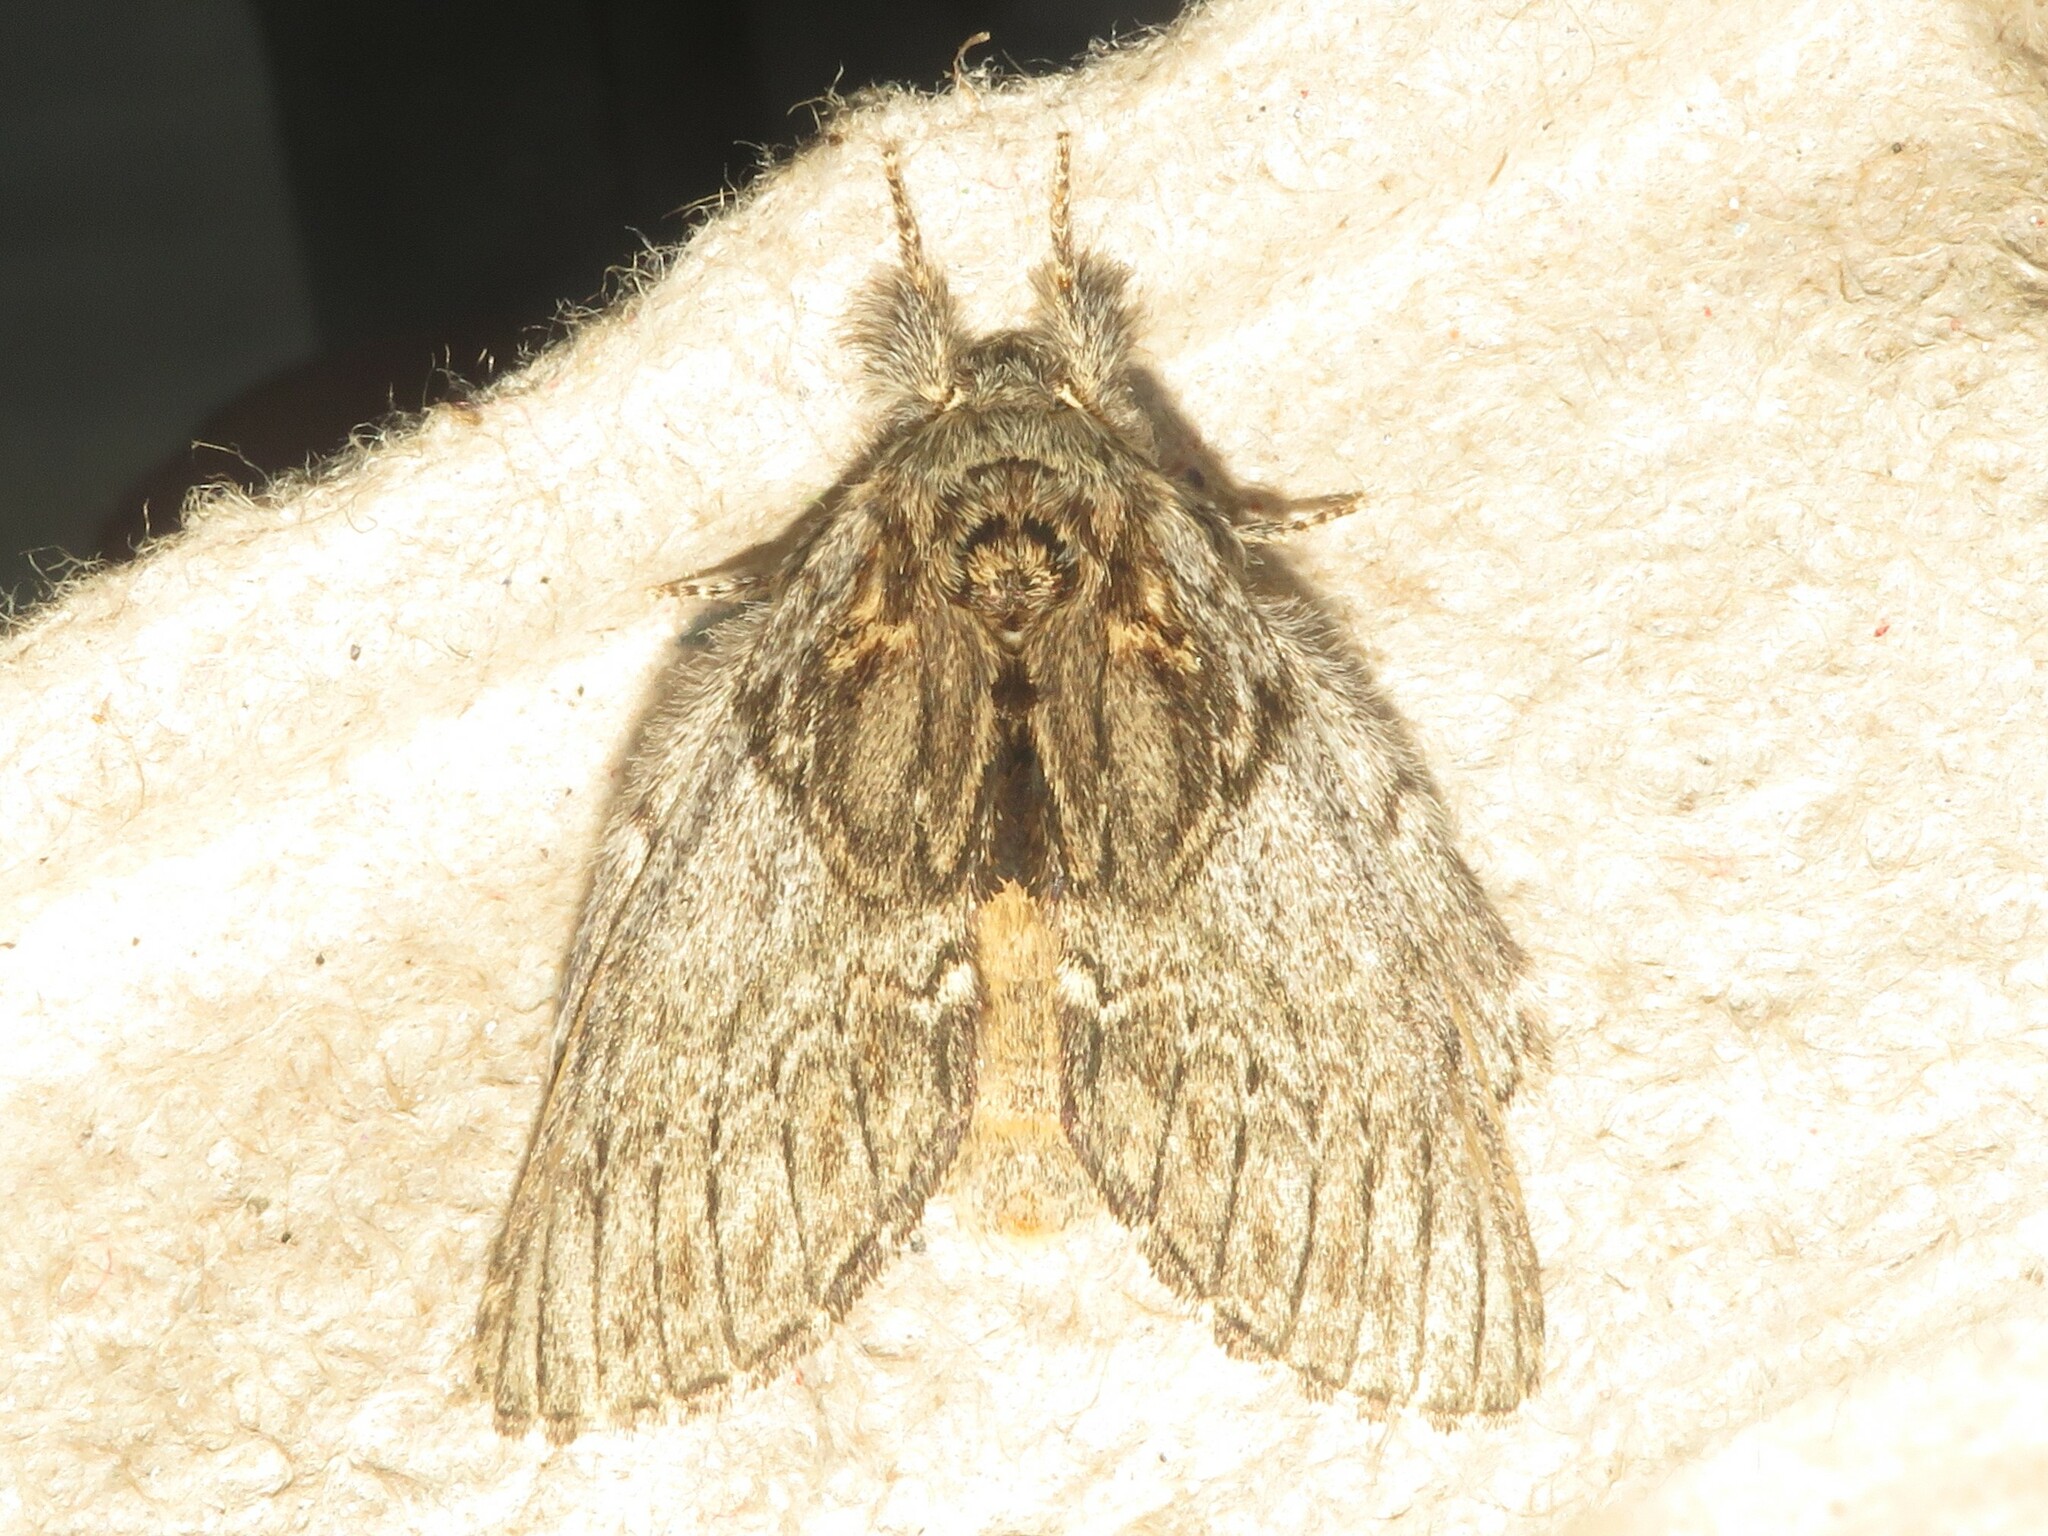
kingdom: Animalia
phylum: Arthropoda
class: Insecta
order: Lepidoptera
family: Notodontidae
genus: Peridea
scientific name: Peridea basitriens
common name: Oval-based prominent
